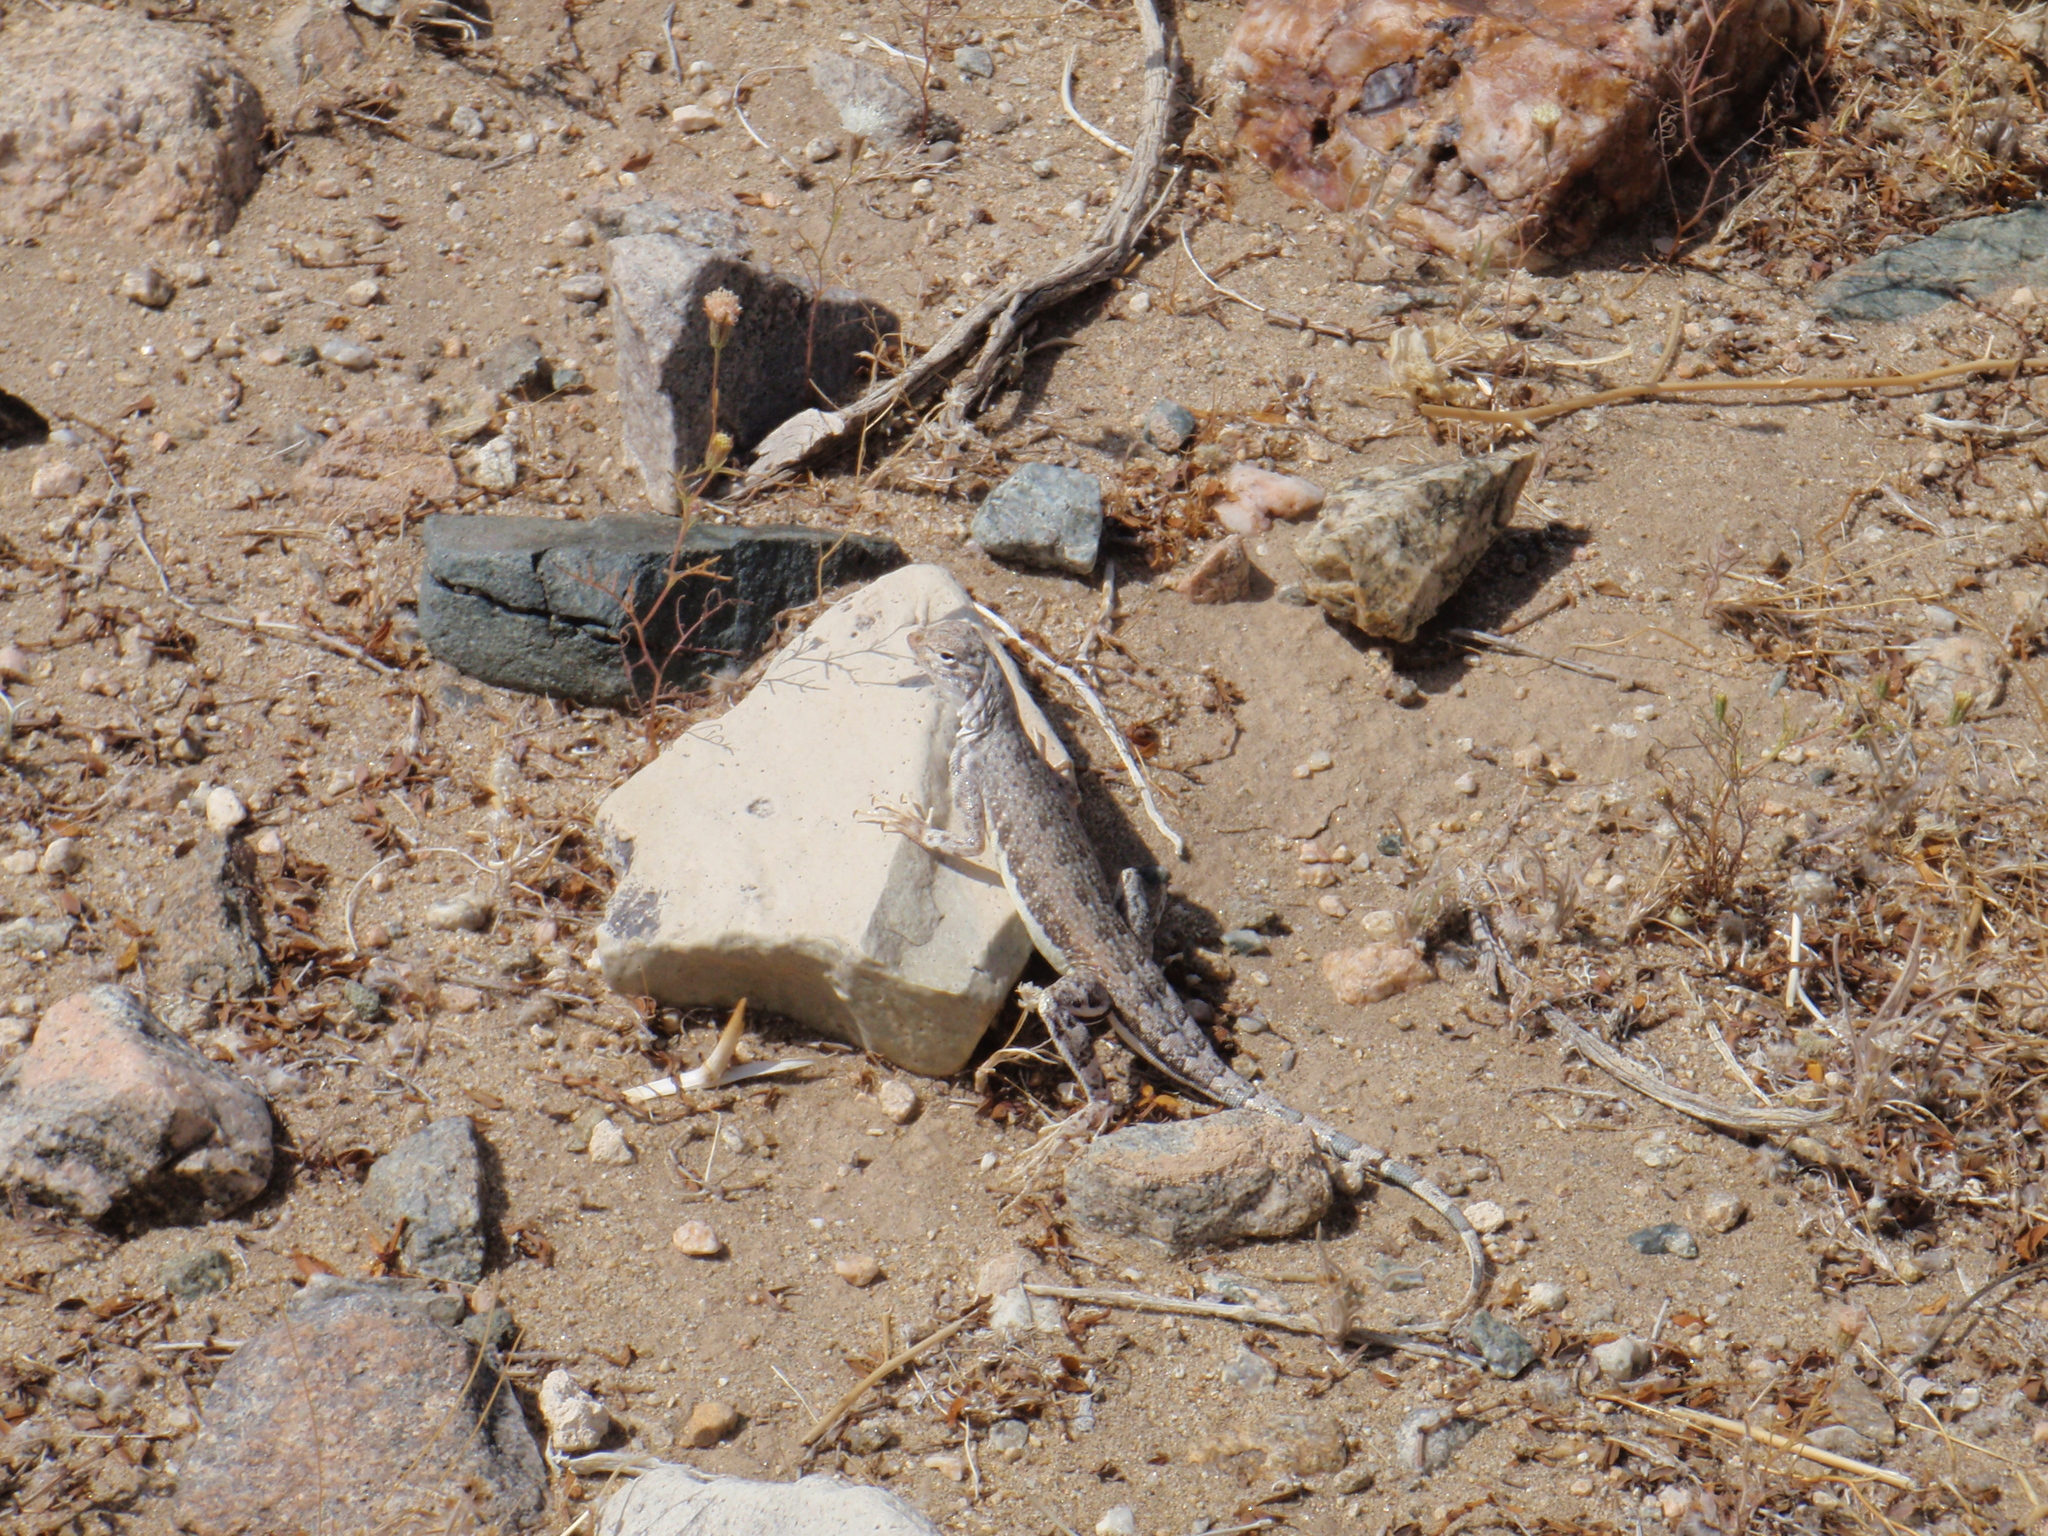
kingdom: Animalia
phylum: Chordata
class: Squamata
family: Phrynosomatidae
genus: Callisaurus
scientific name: Callisaurus draconoides
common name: Zebra-tailed lizard
